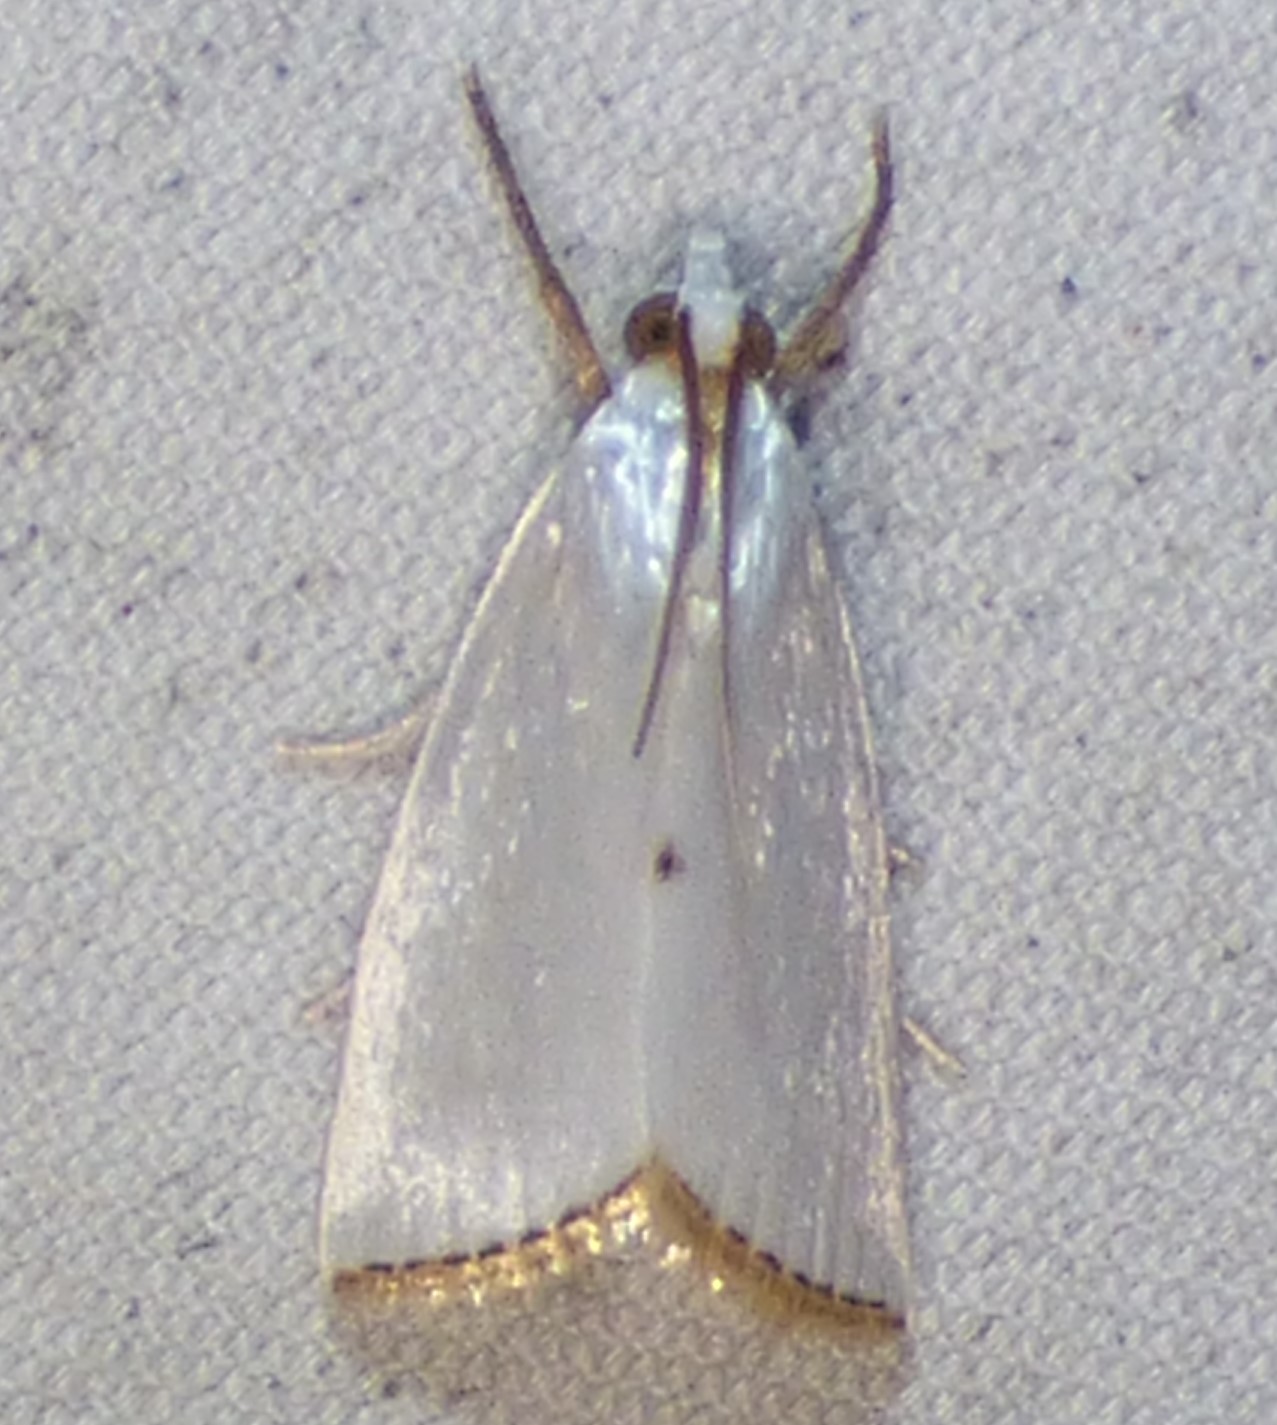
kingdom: Animalia
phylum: Arthropoda
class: Insecta
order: Lepidoptera
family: Crambidae
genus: Argyria
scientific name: Argyria nivalis
